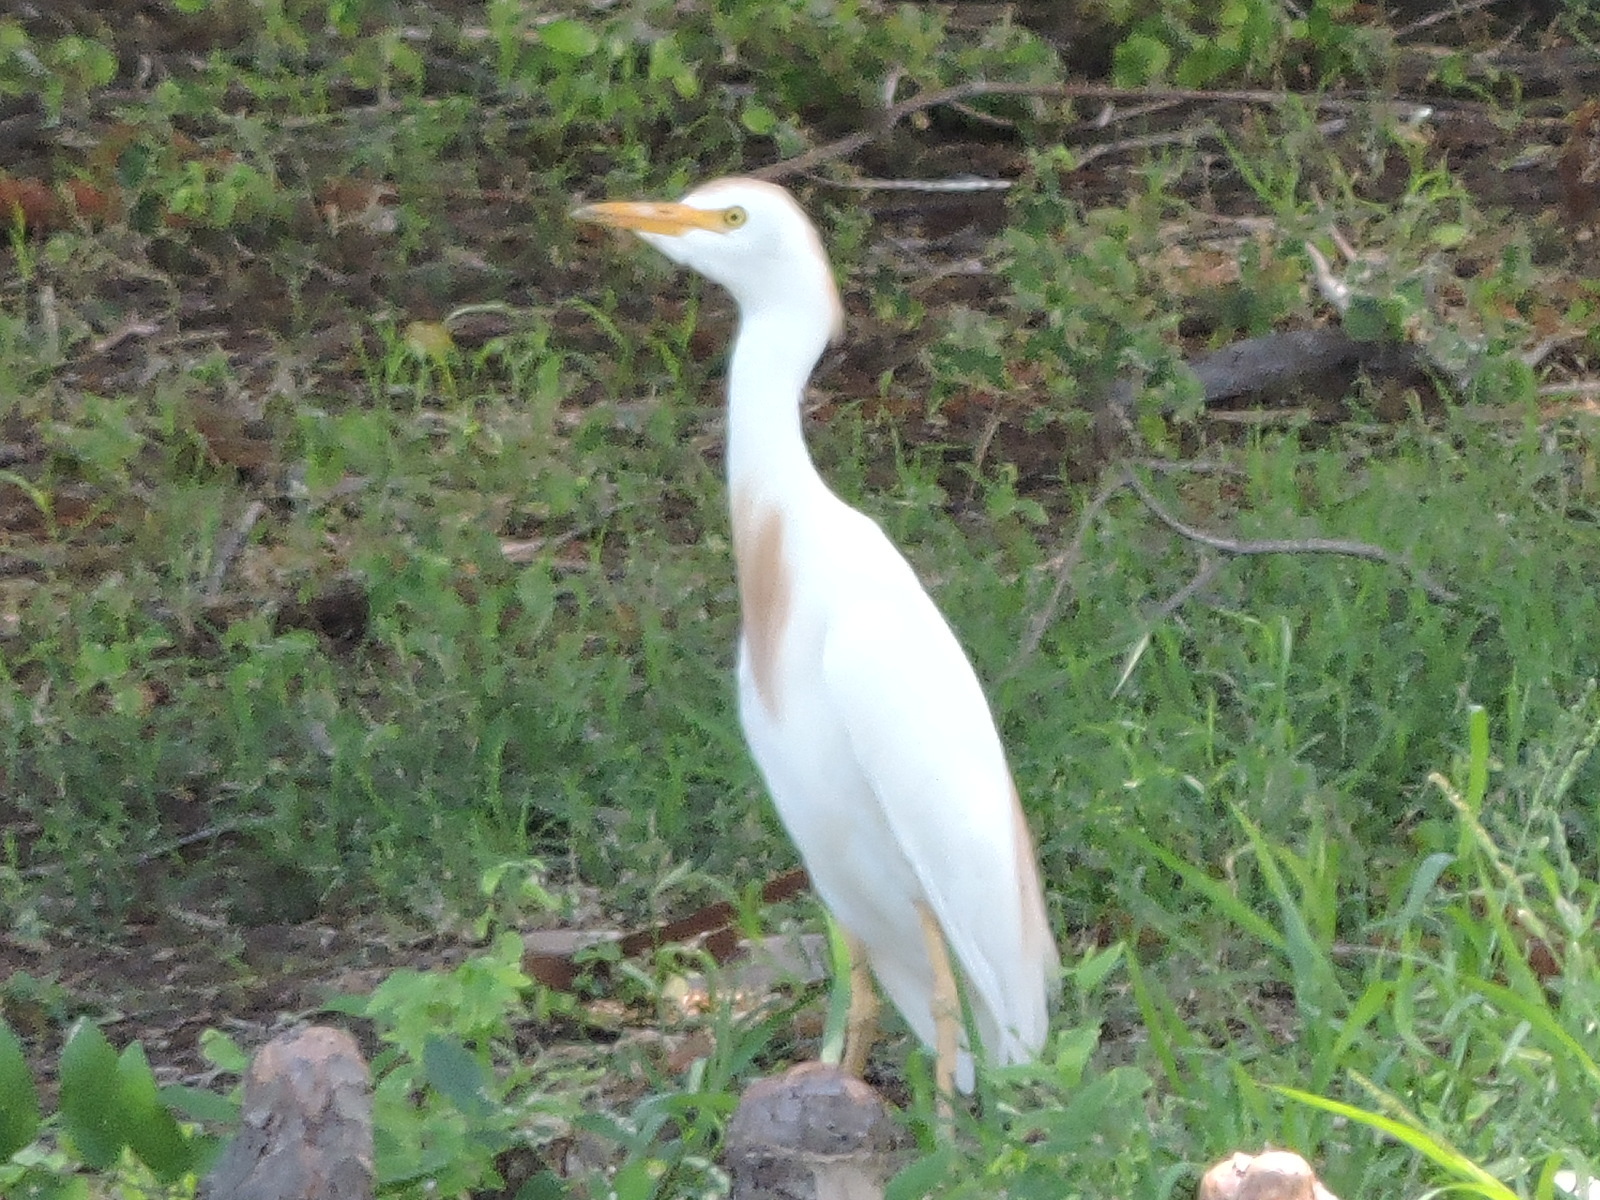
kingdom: Animalia
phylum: Chordata
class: Aves
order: Pelecaniformes
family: Ardeidae
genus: Bubulcus
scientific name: Bubulcus ibis
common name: Cattle egret
